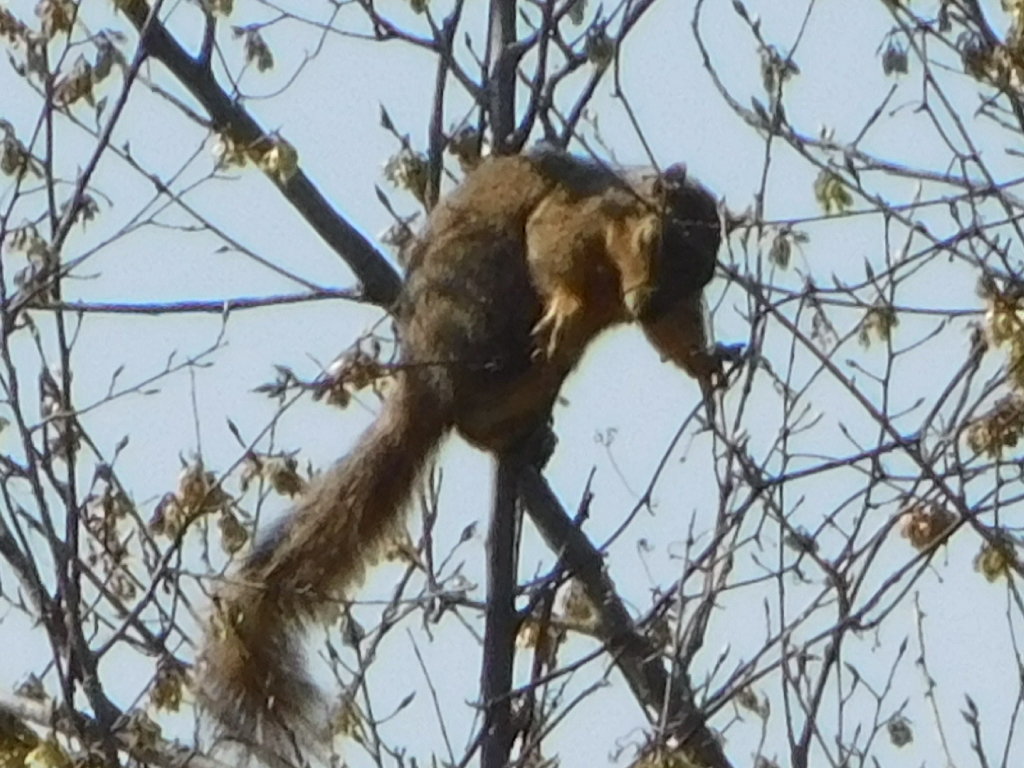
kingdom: Animalia
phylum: Chordata
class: Mammalia
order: Rodentia
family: Sciuridae
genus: Sciurus
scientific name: Sciurus niger
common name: Fox squirrel
